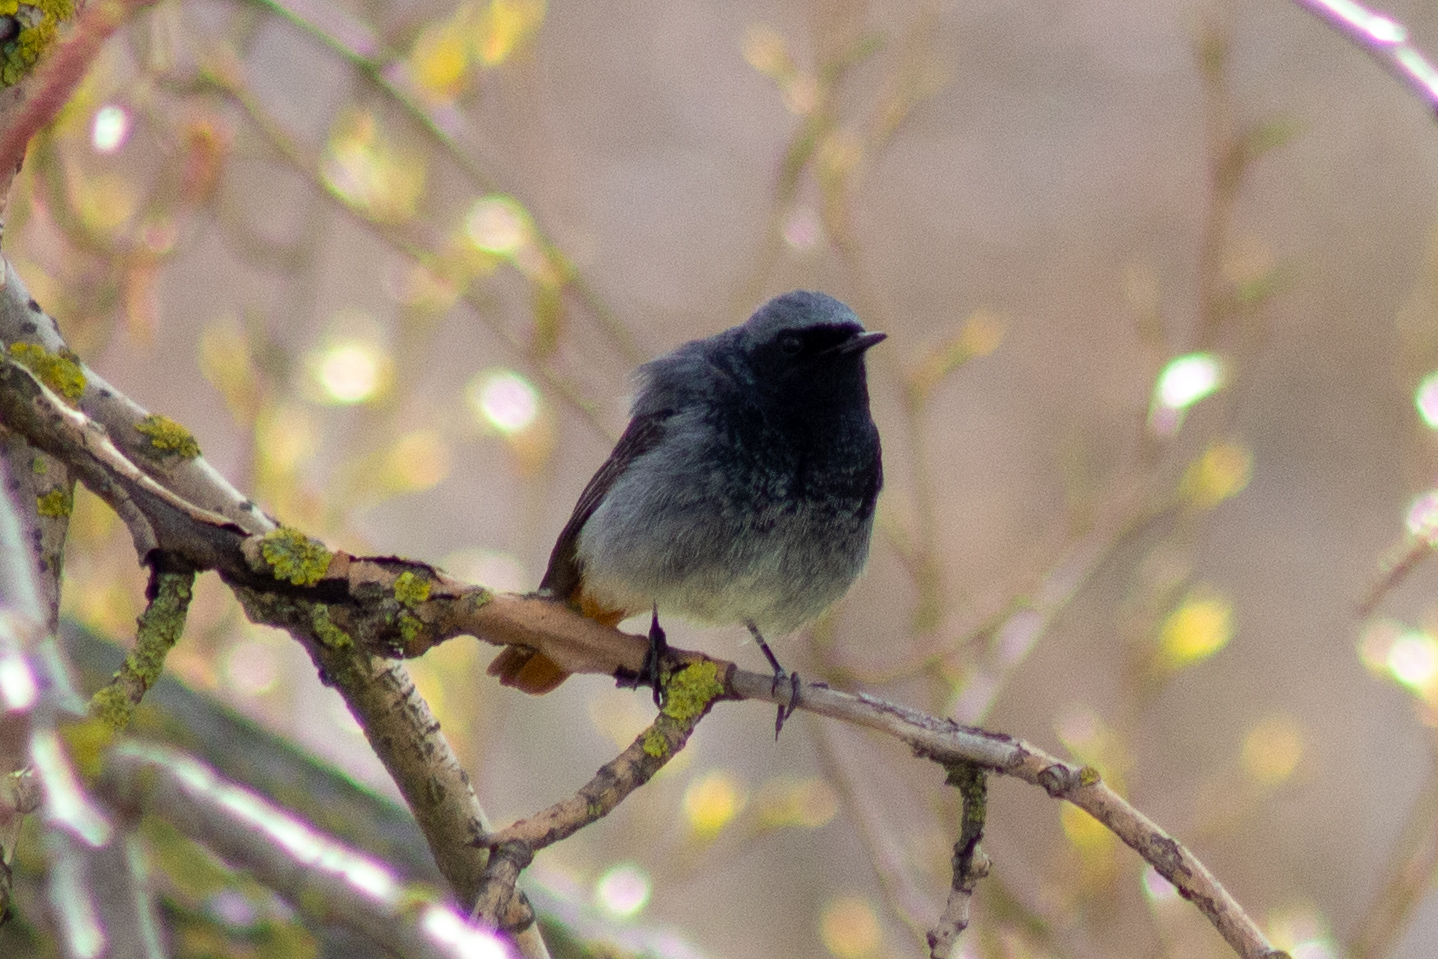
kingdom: Animalia
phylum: Chordata
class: Aves
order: Passeriformes
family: Muscicapidae
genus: Phoenicurus
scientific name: Phoenicurus ochruros
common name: Black redstart
